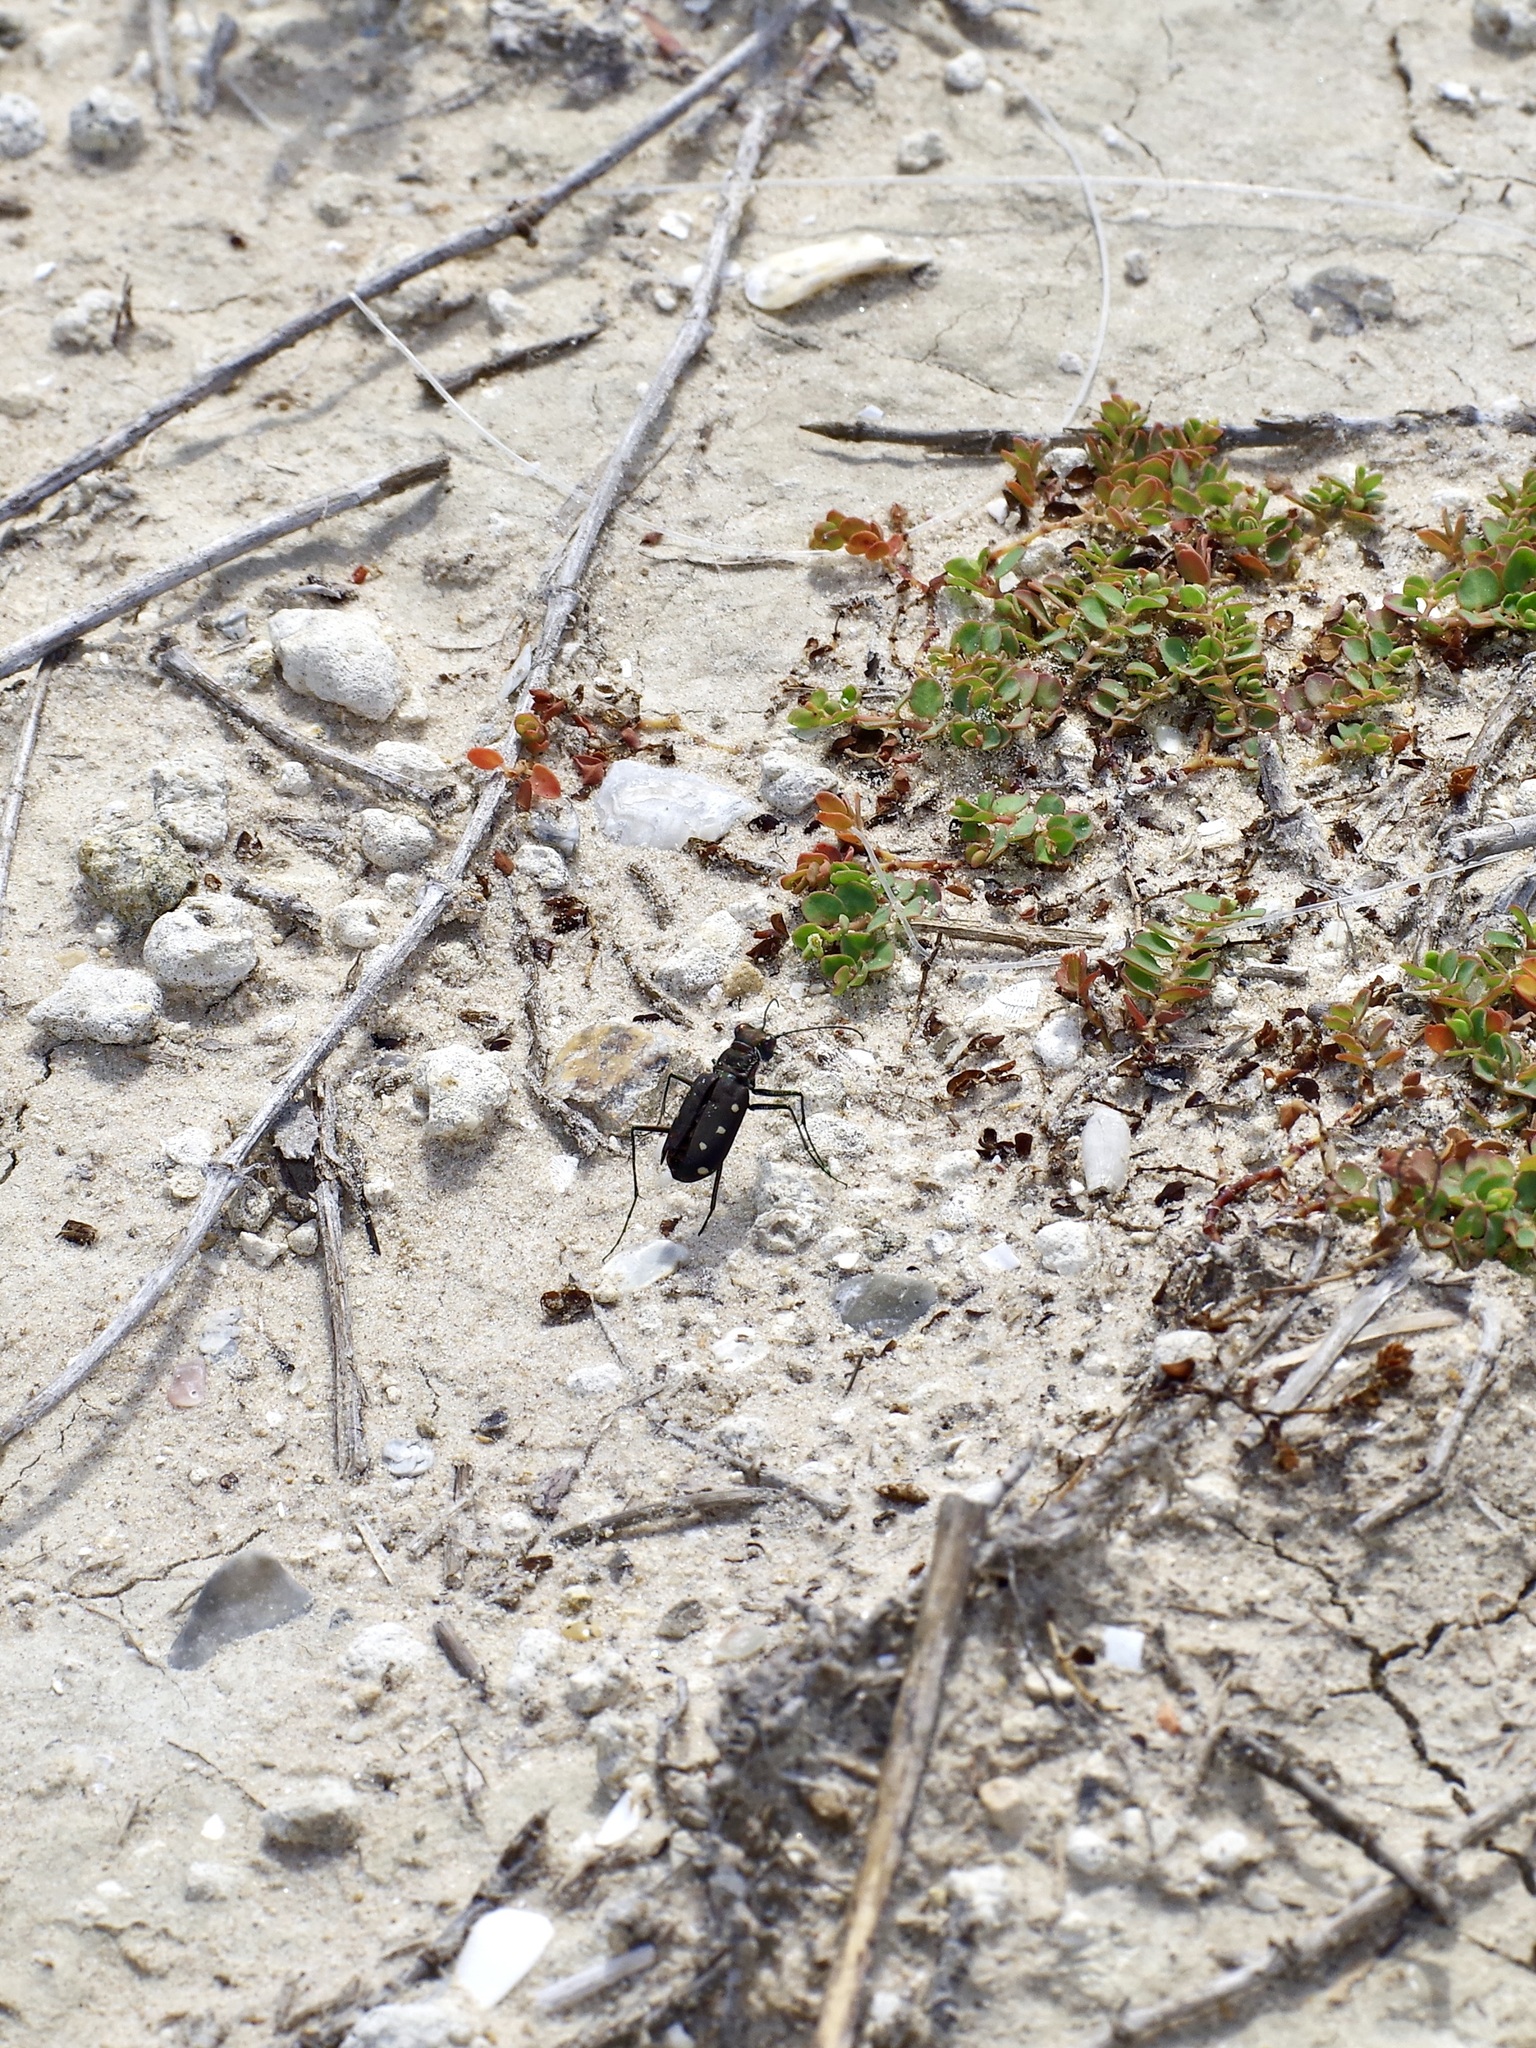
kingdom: Animalia
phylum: Arthropoda
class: Insecta
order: Coleoptera
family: Carabidae
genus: Cicindela
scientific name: Cicindela ocellata
